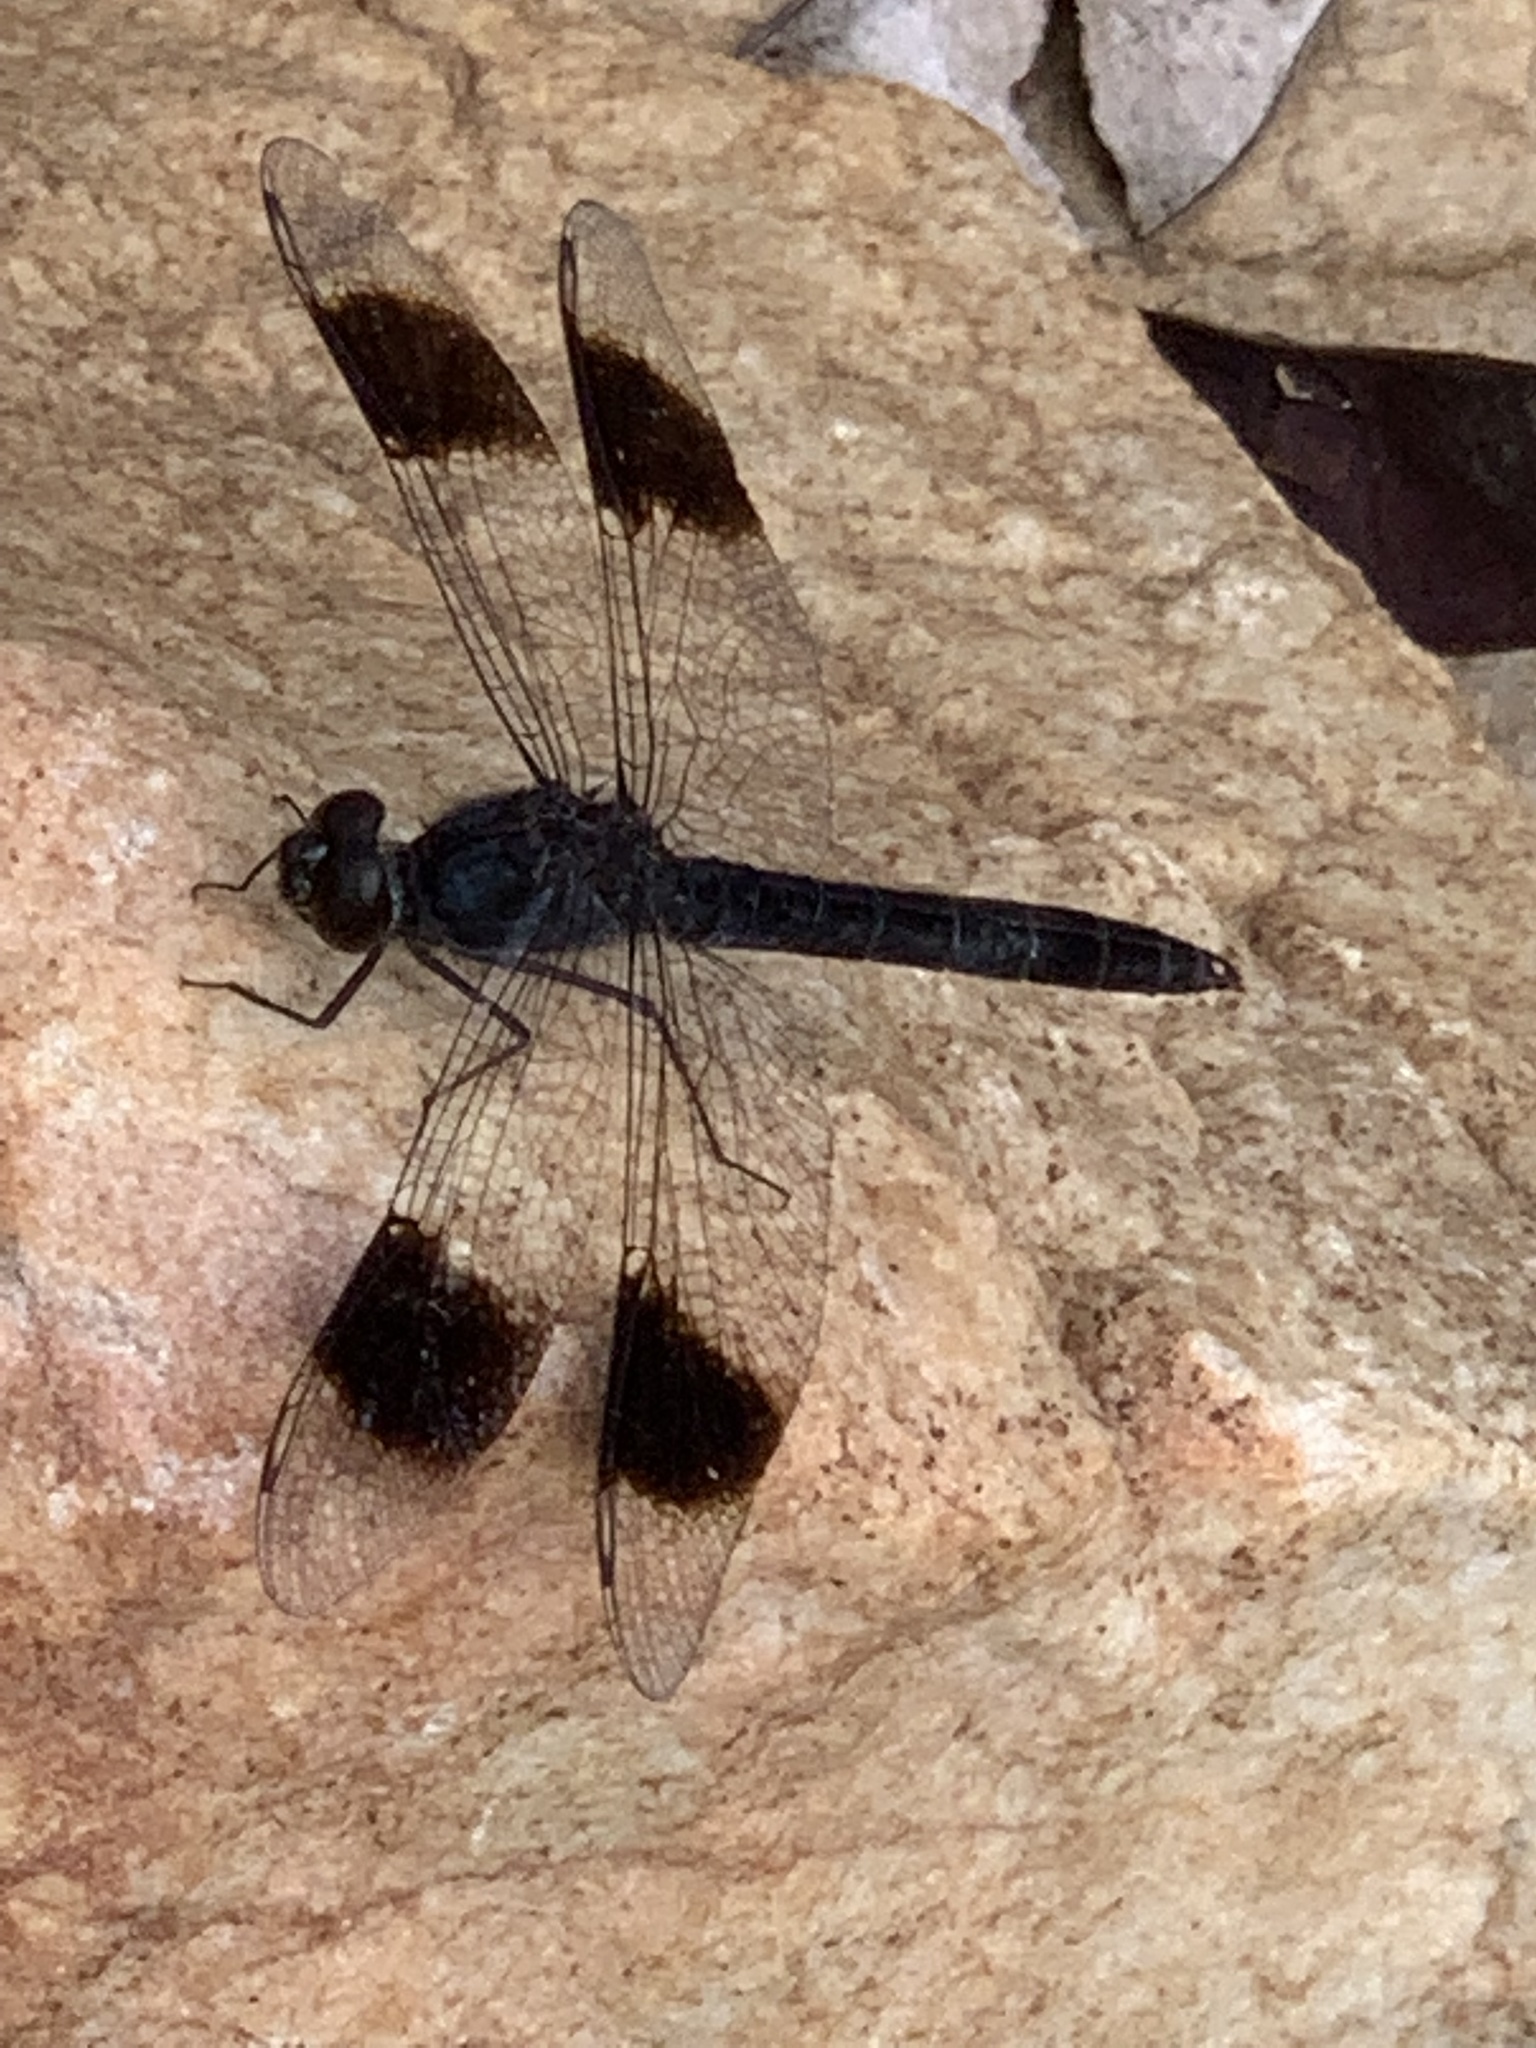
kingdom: Animalia
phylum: Arthropoda
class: Insecta
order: Odonata
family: Libellulidae
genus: Brachythemis
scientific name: Brachythemis leucosticta
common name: Banded groundling
